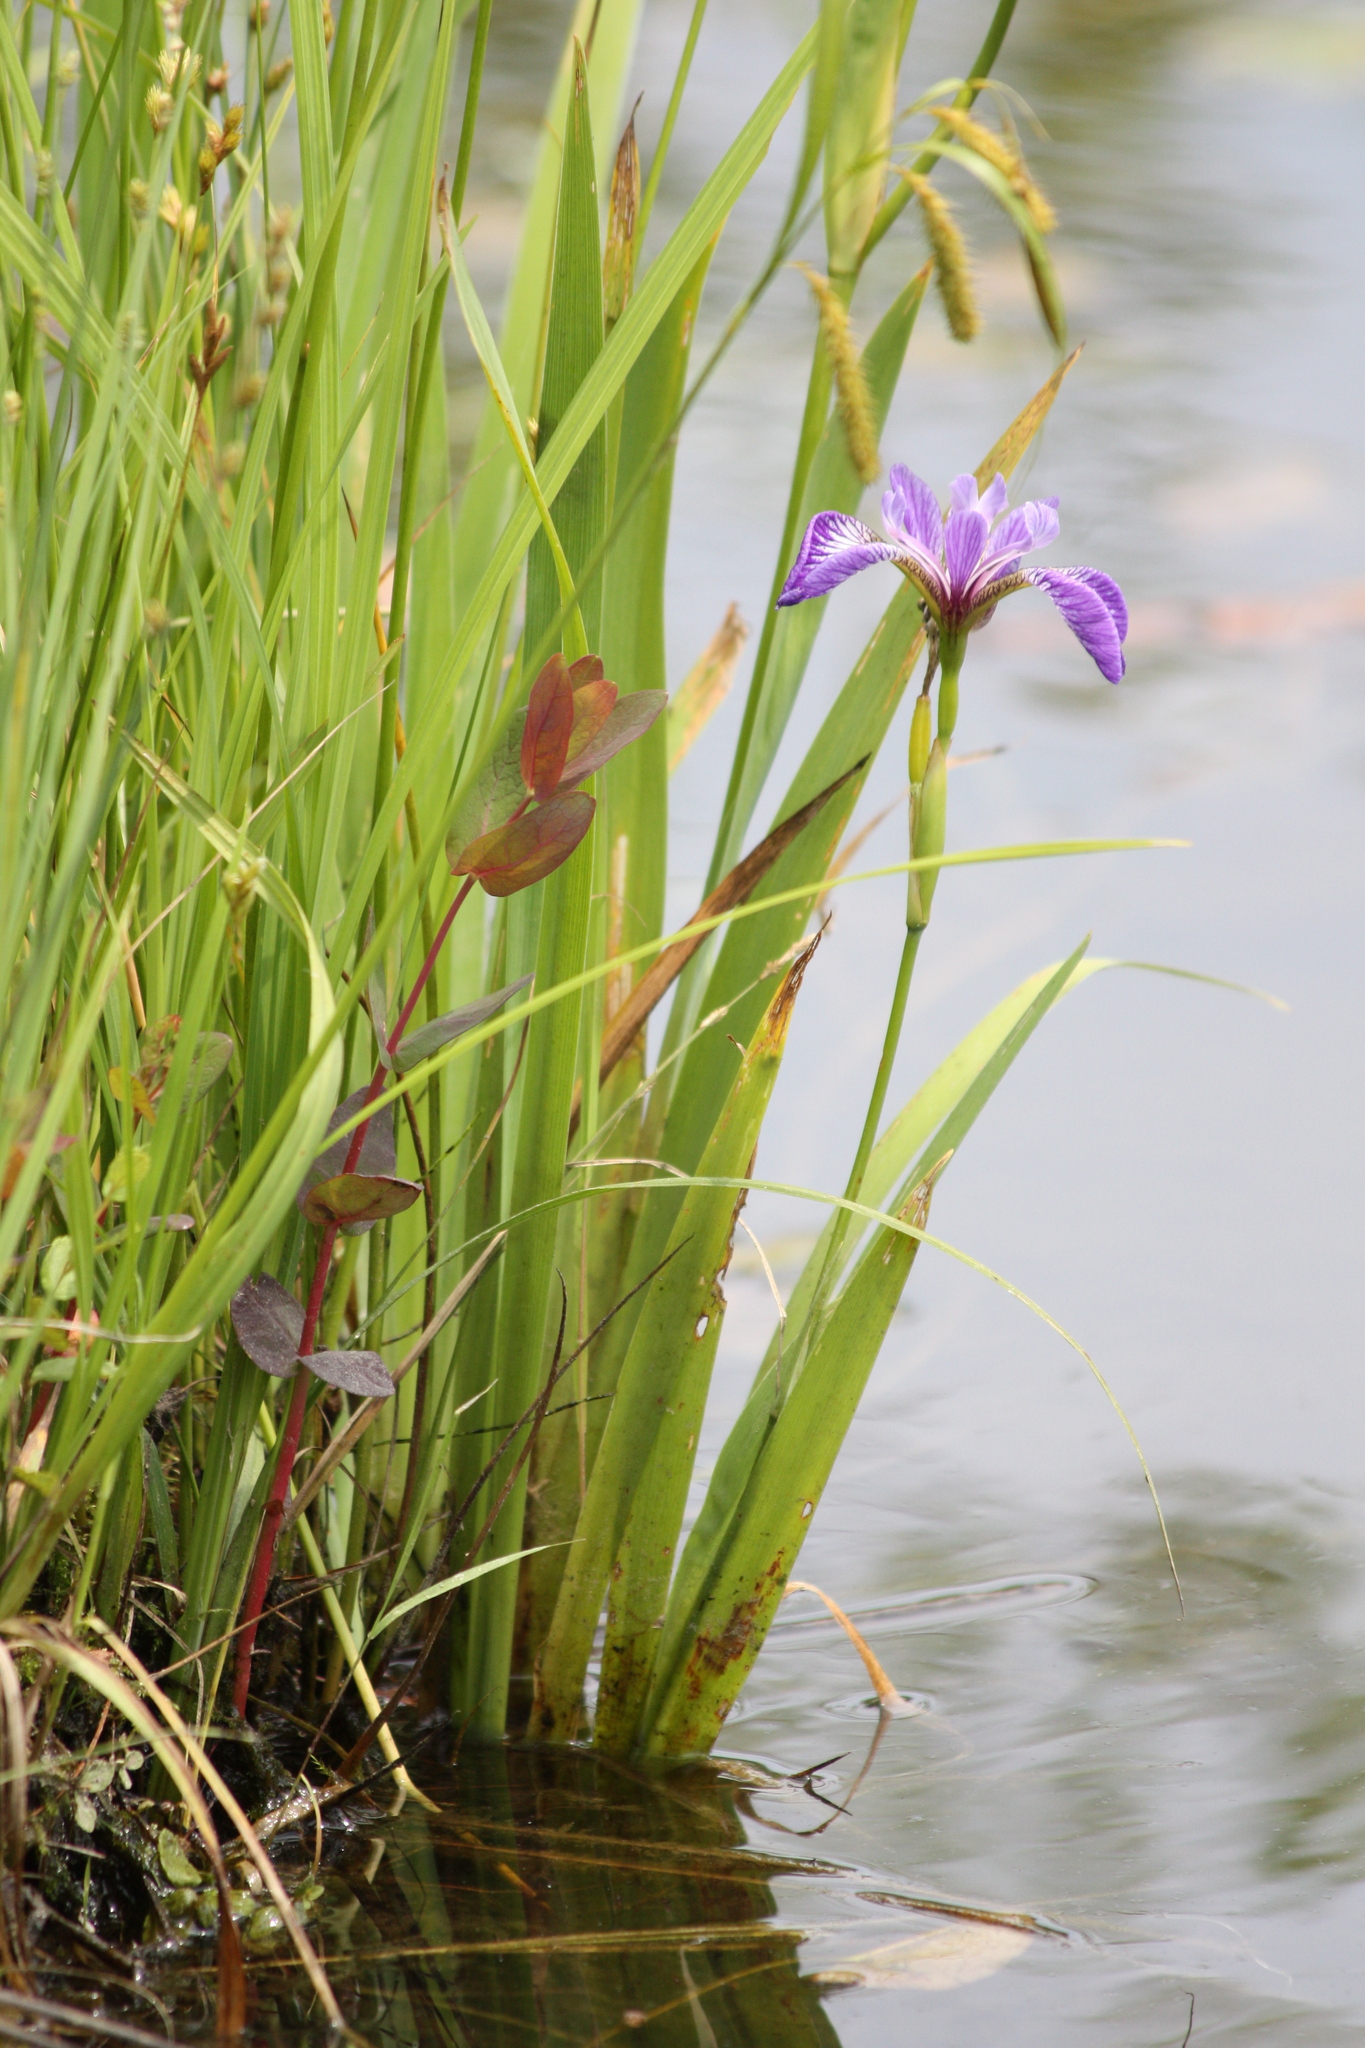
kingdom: Plantae
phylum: Tracheophyta
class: Liliopsida
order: Asparagales
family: Iridaceae
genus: Iris
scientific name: Iris versicolor
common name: Purple iris
